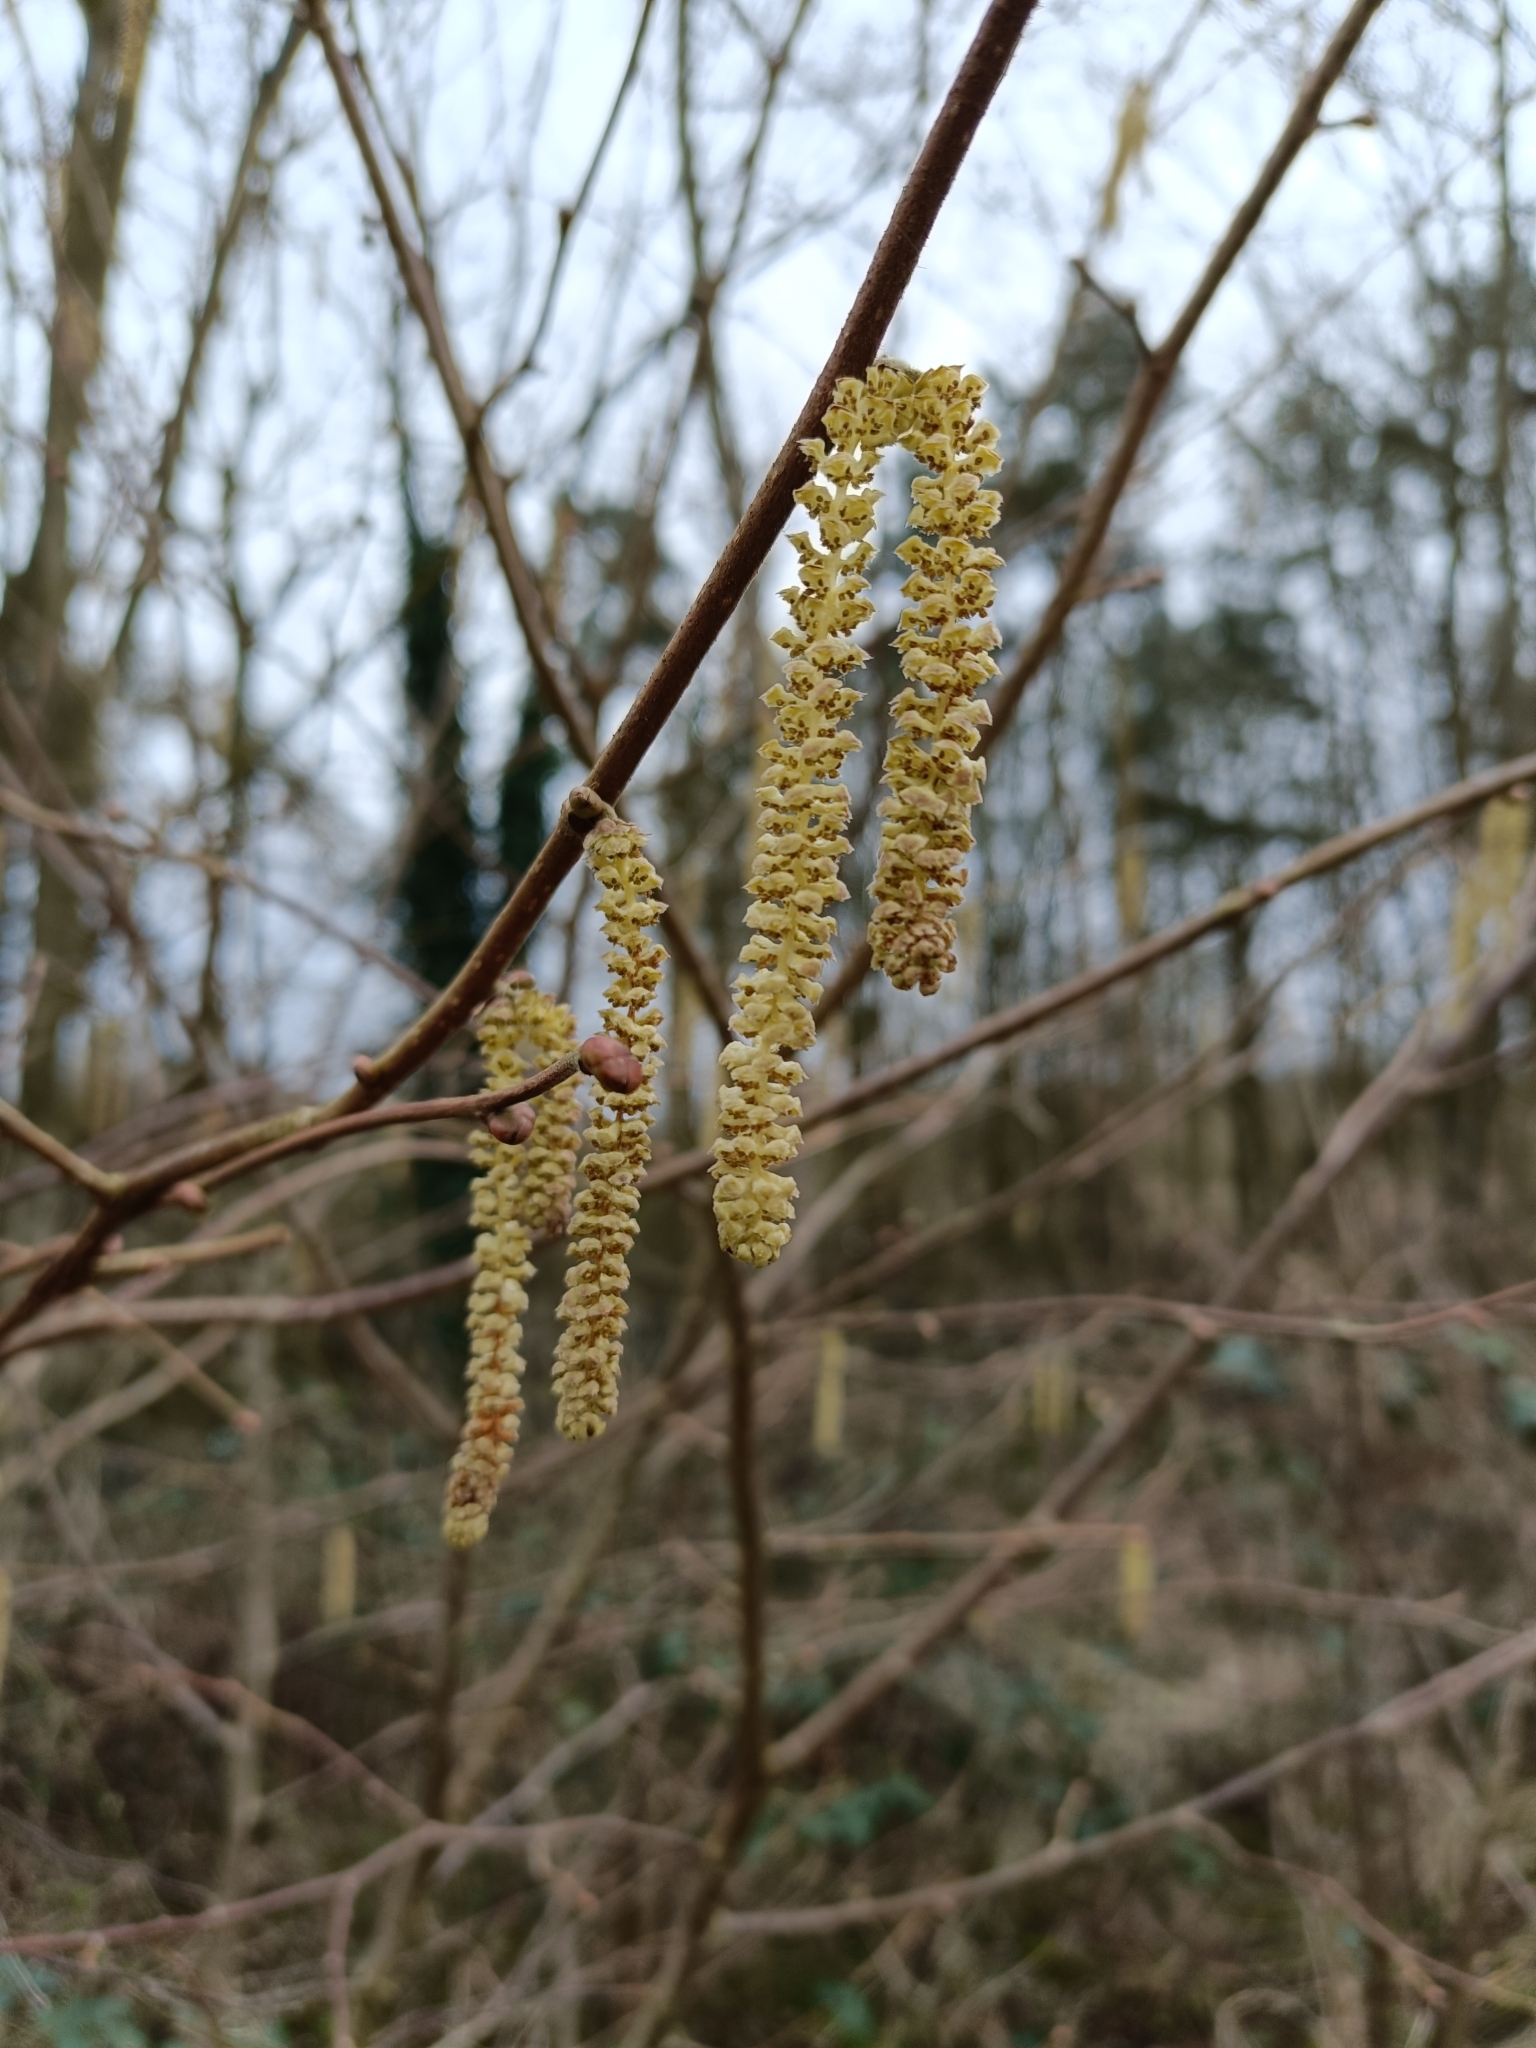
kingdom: Plantae
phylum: Tracheophyta
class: Magnoliopsida
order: Fagales
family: Betulaceae
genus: Corylus
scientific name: Corylus avellana
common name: European hazel
